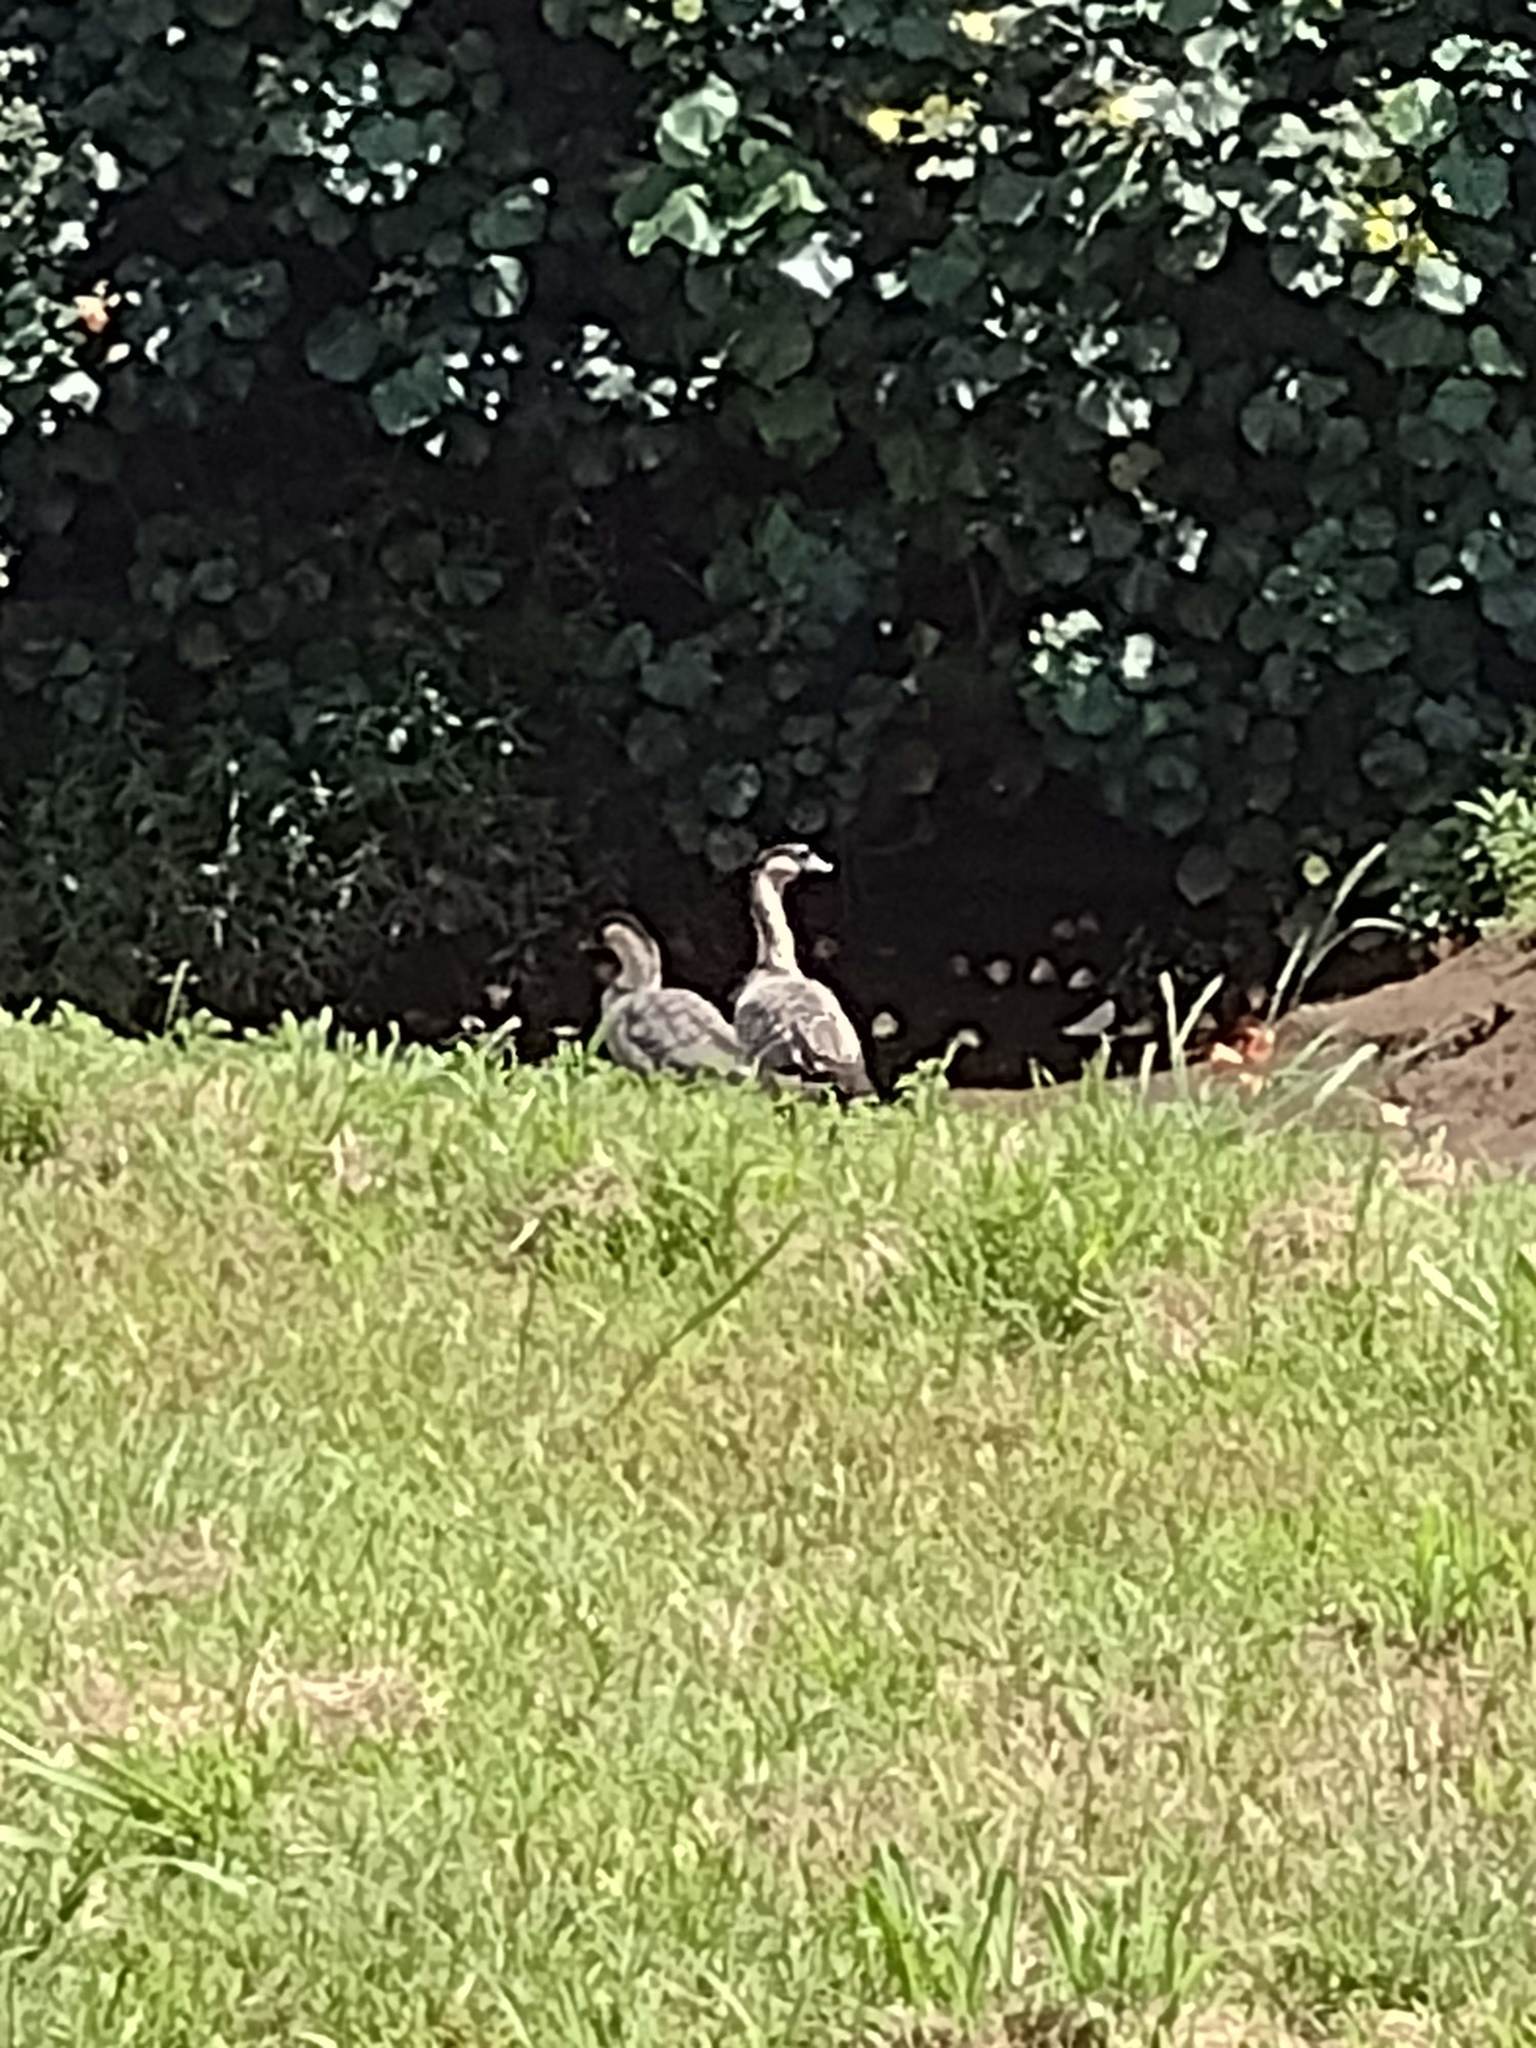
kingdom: Animalia
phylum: Chordata
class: Aves
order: Anseriformes
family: Anatidae
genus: Branta
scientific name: Branta sandvicensis
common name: Nene
